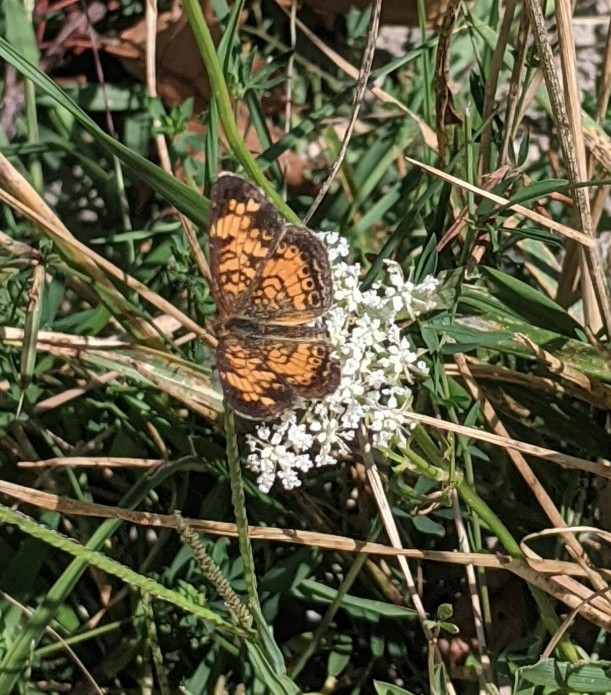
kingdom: Animalia
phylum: Arthropoda
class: Insecta
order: Lepidoptera
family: Nymphalidae
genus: Phyciodes
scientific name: Phyciodes tharos
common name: Pearl crescent
